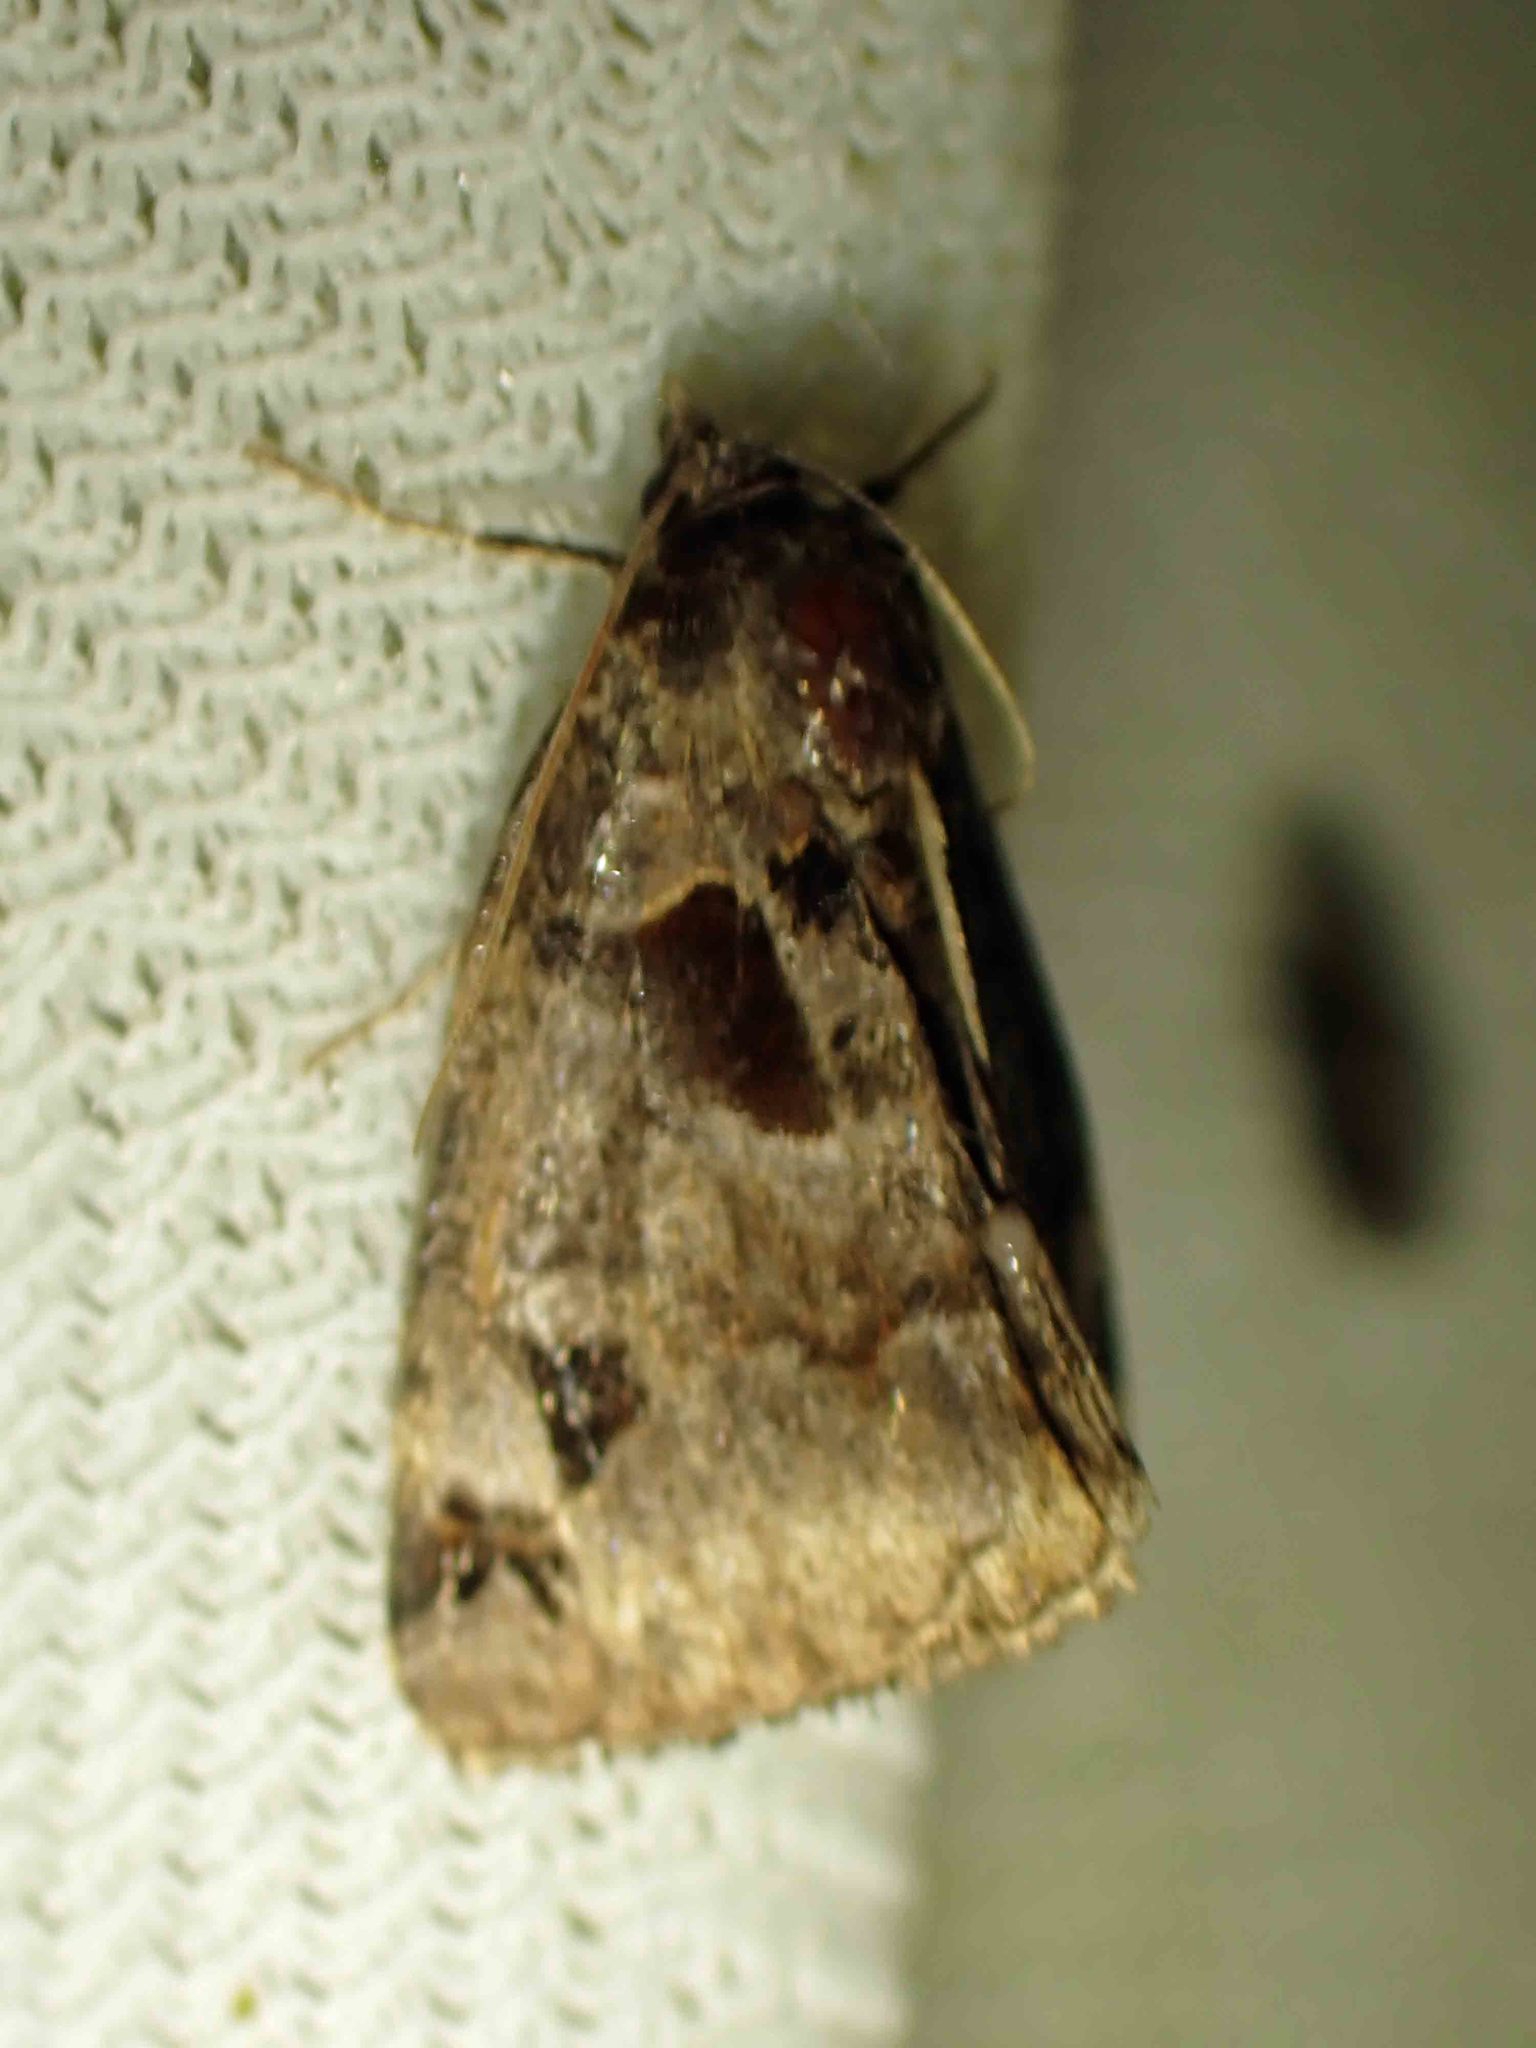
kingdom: Animalia
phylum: Arthropoda
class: Insecta
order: Lepidoptera
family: Erebidae
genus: Euclidia
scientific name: Euclidia cuspidea
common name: Toothed somberwing
